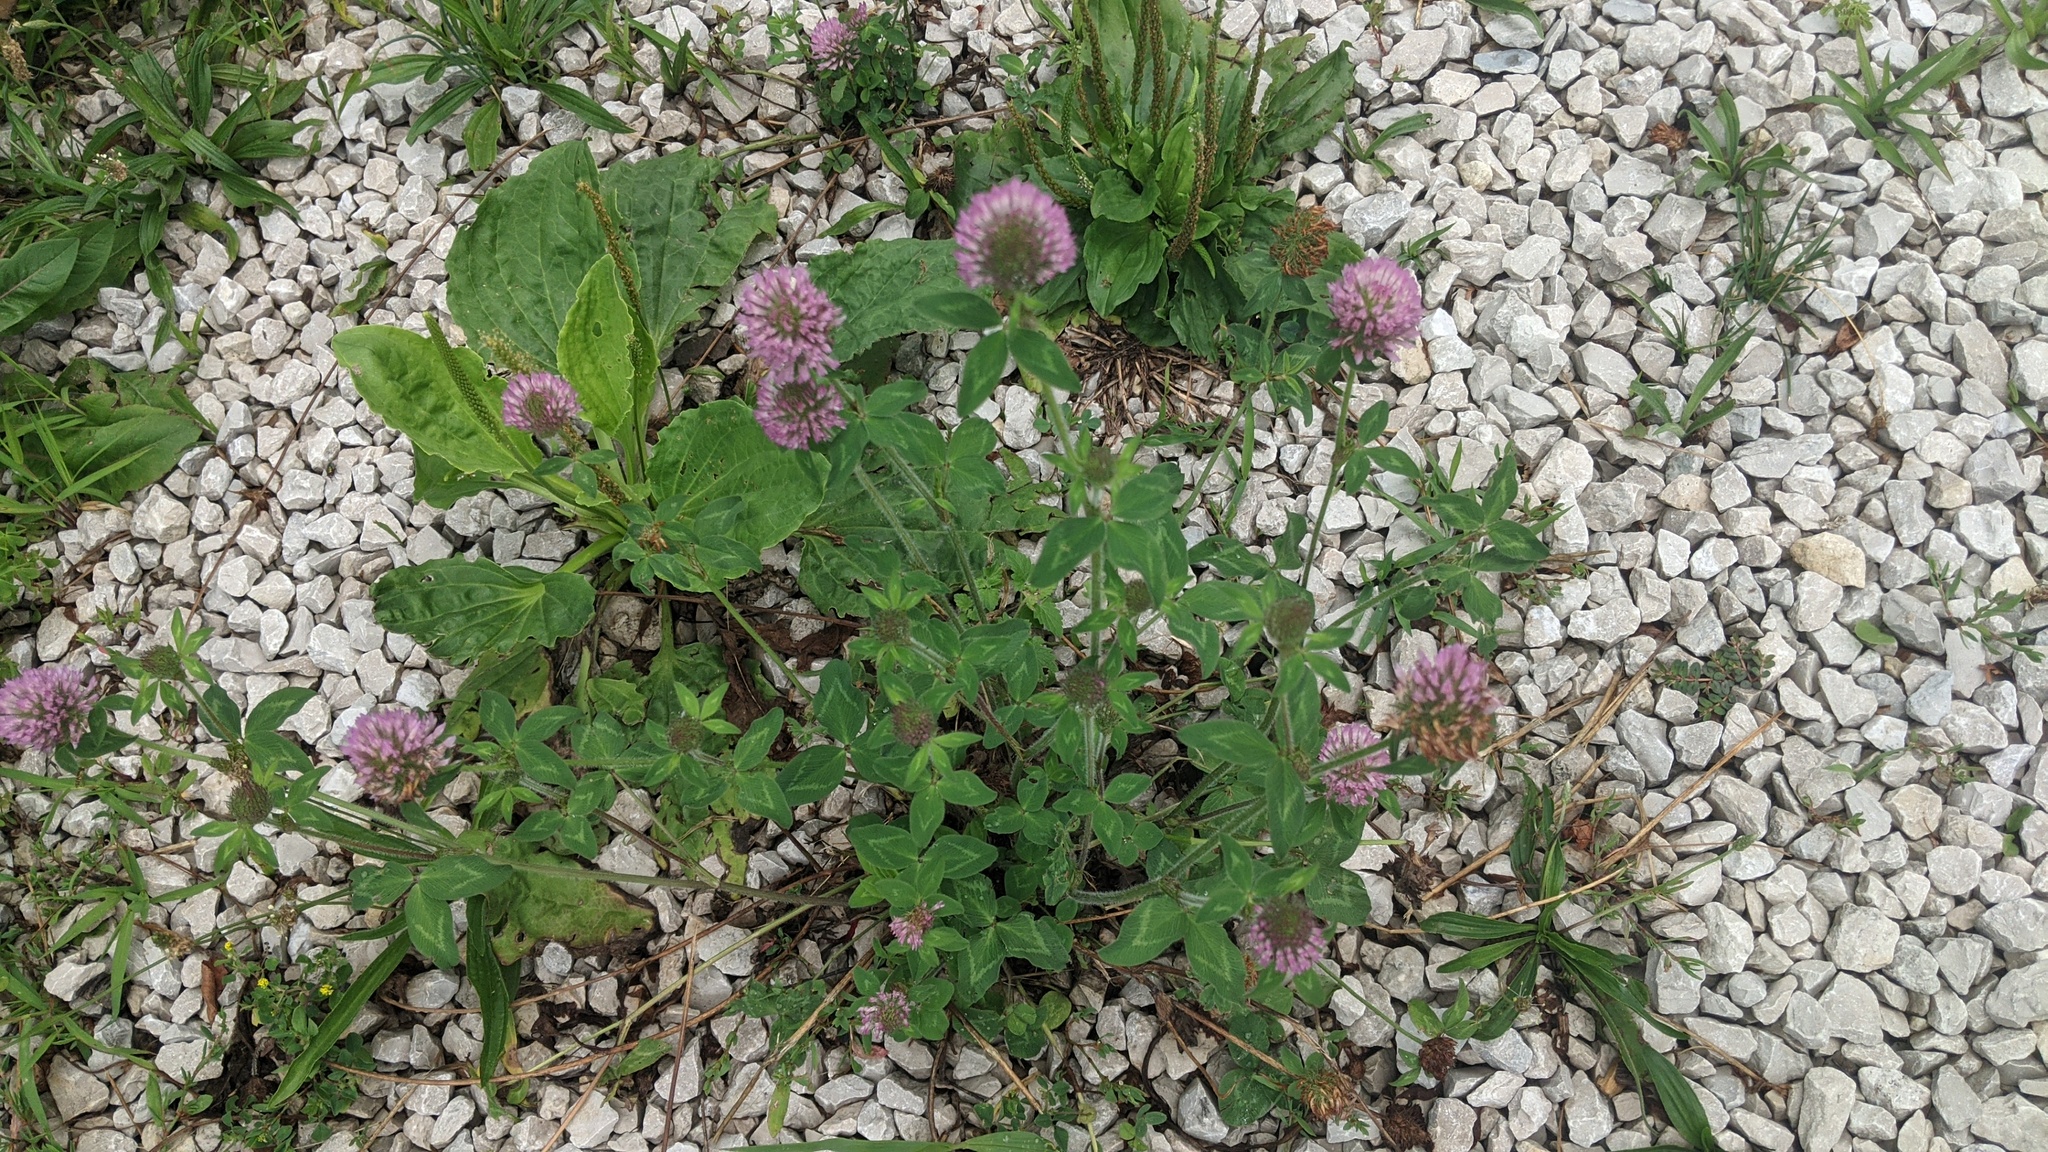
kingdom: Plantae
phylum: Tracheophyta
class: Magnoliopsida
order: Fabales
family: Fabaceae
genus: Trifolium
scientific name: Trifolium pratense
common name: Red clover
